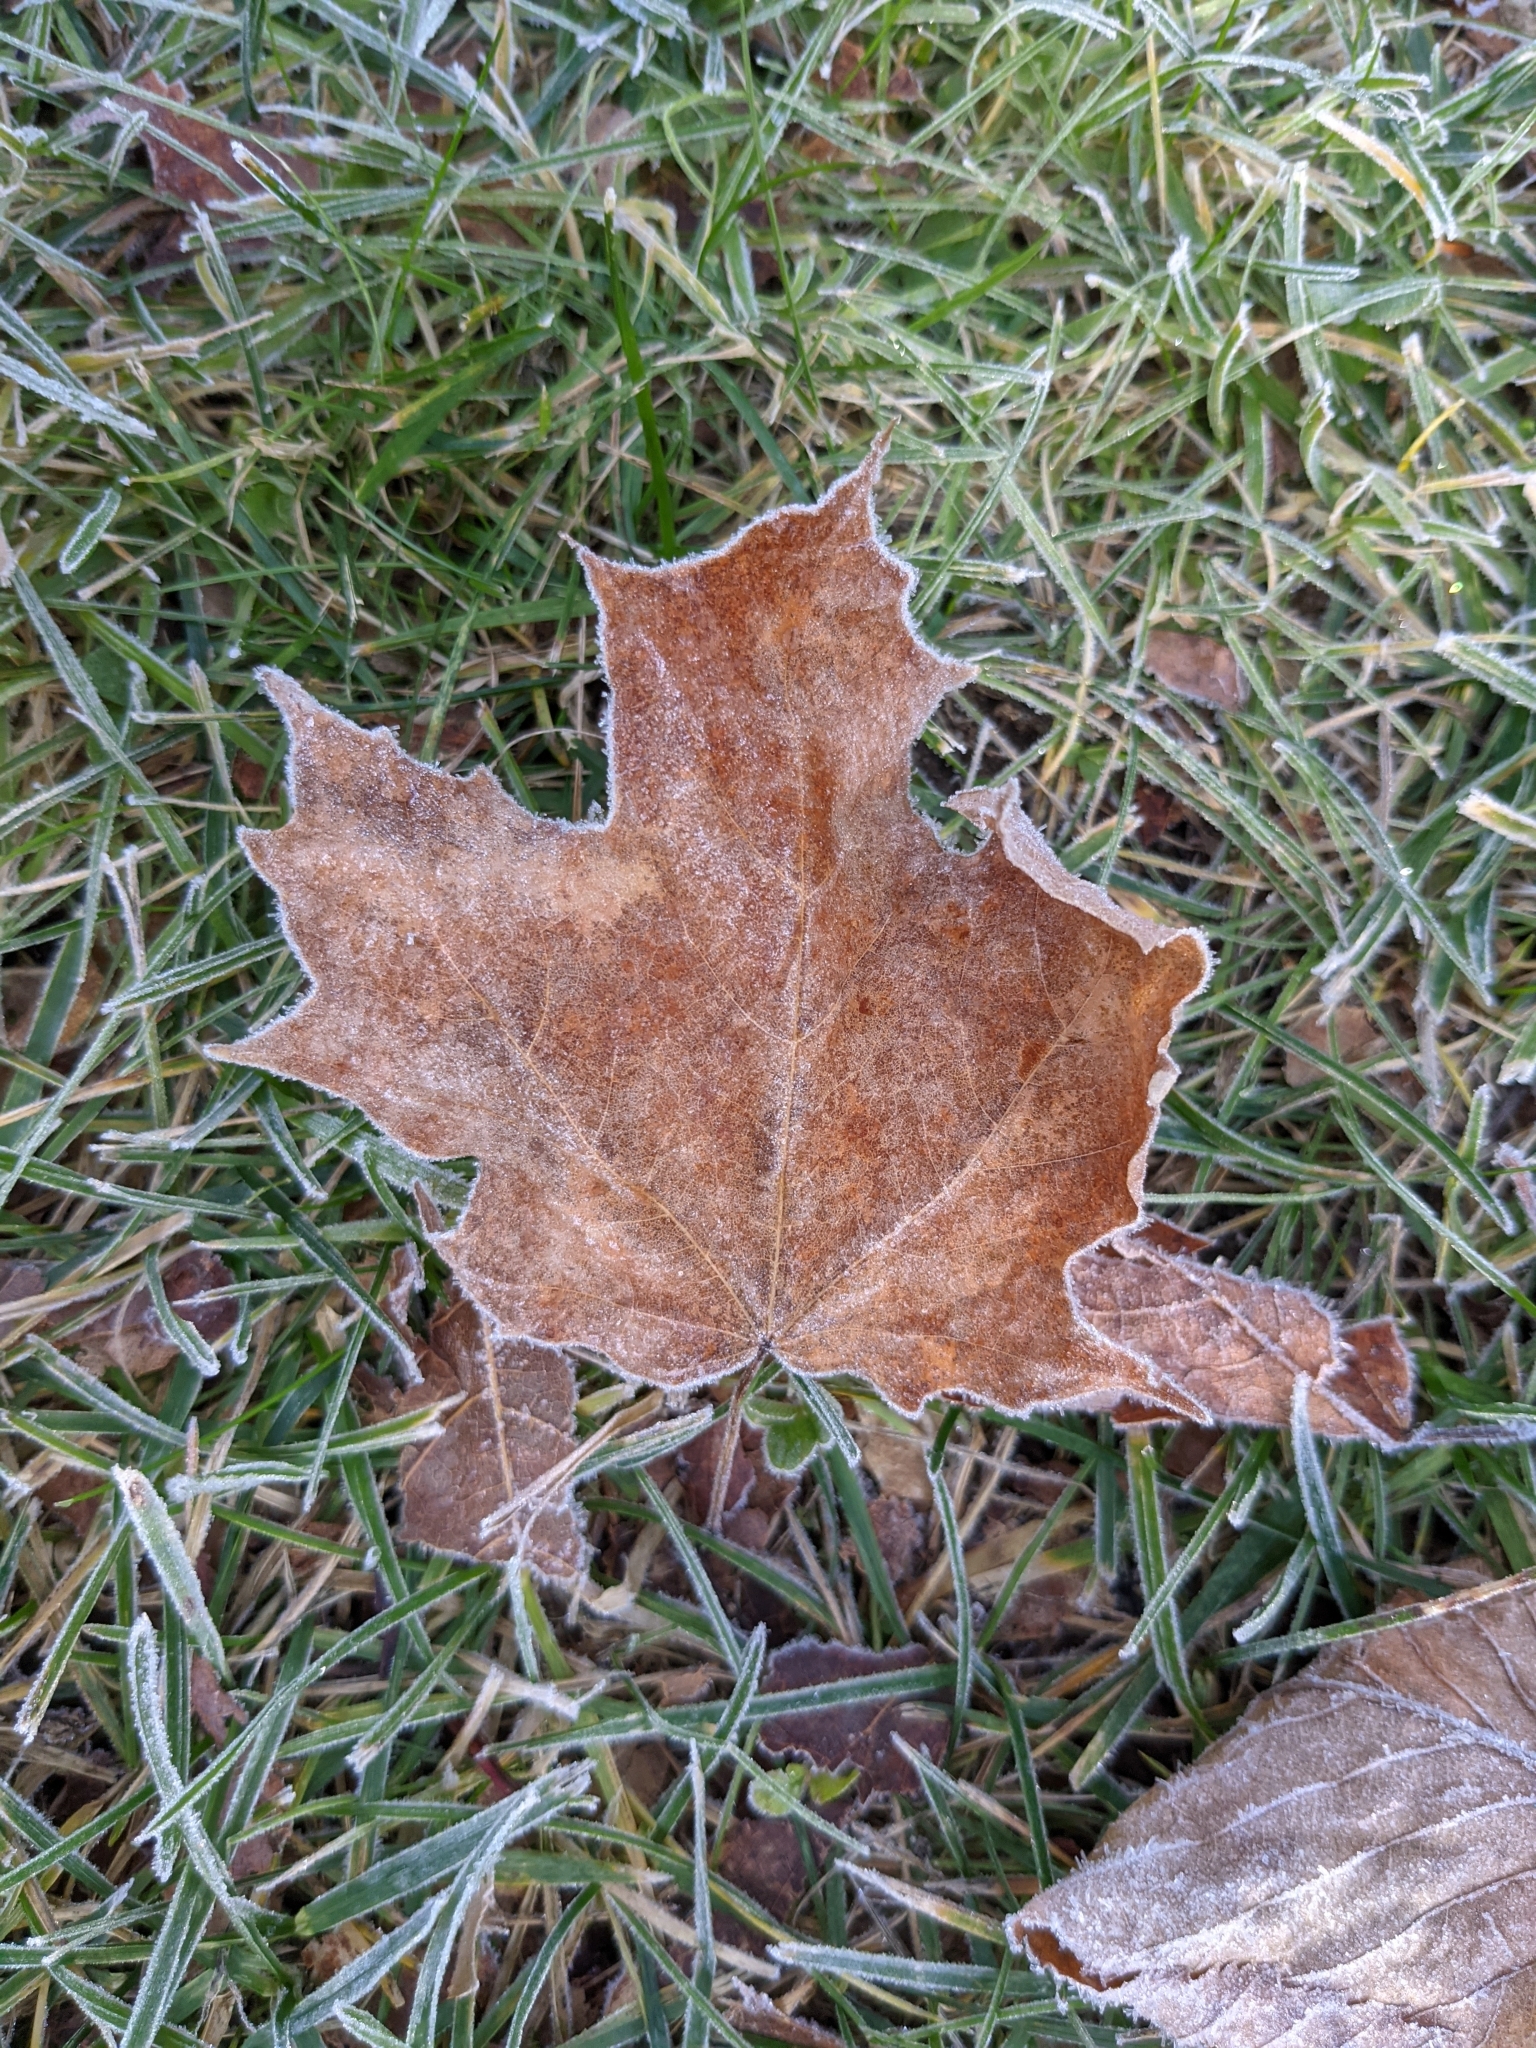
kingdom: Plantae
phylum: Tracheophyta
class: Magnoliopsida
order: Sapindales
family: Sapindaceae
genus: Acer
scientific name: Acer saccharum
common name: Sugar maple
